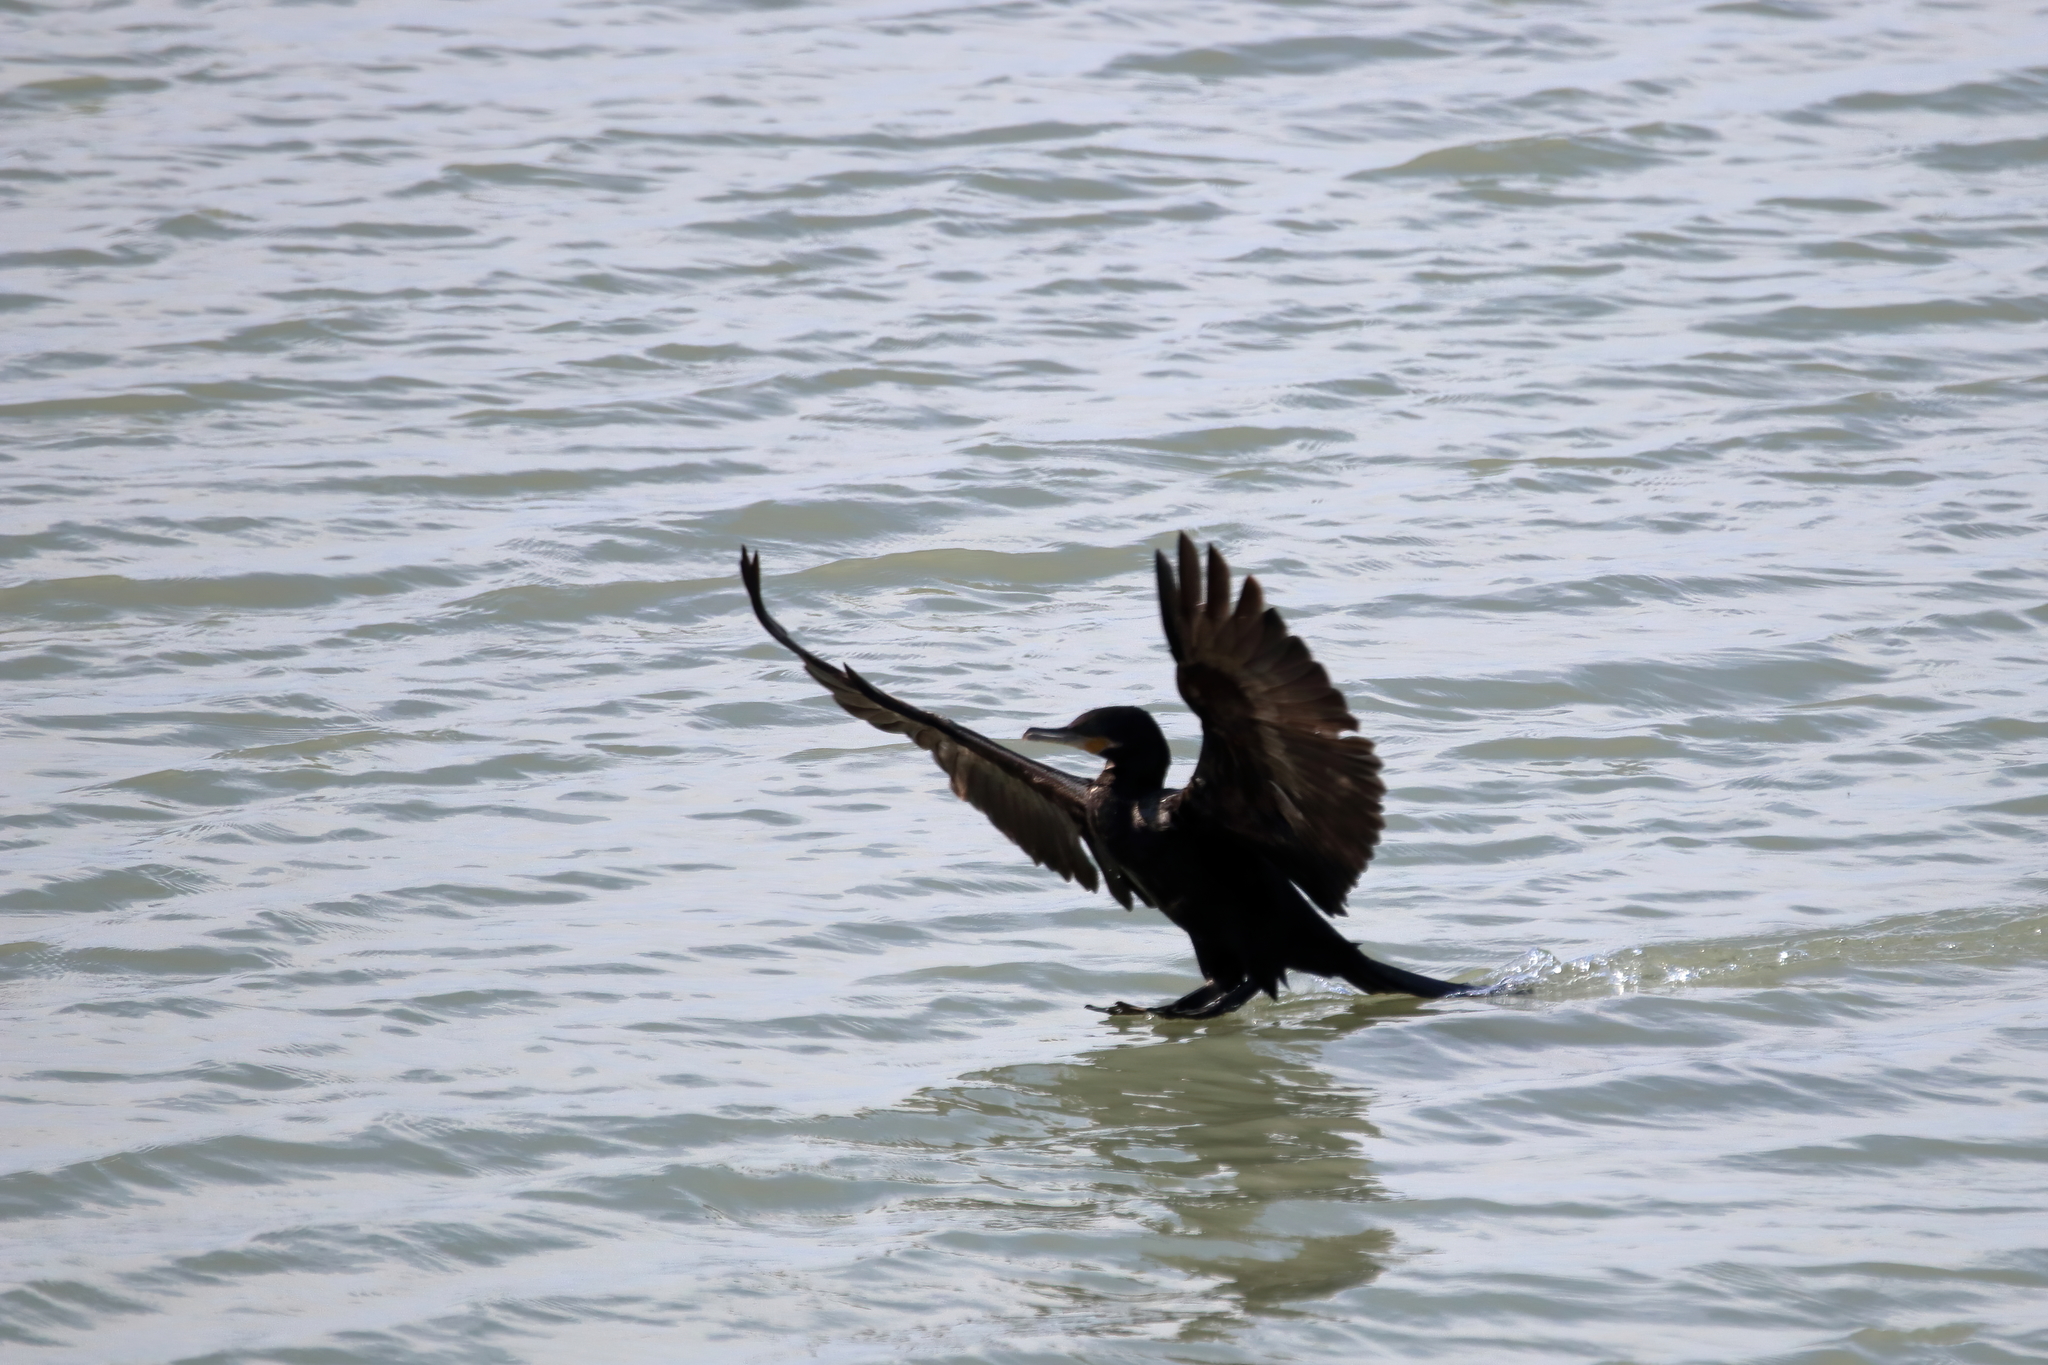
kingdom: Animalia
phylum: Chordata
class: Aves
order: Suliformes
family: Phalacrocoracidae
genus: Phalacrocorax
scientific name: Phalacrocorax brasilianus
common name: Neotropic cormorant
